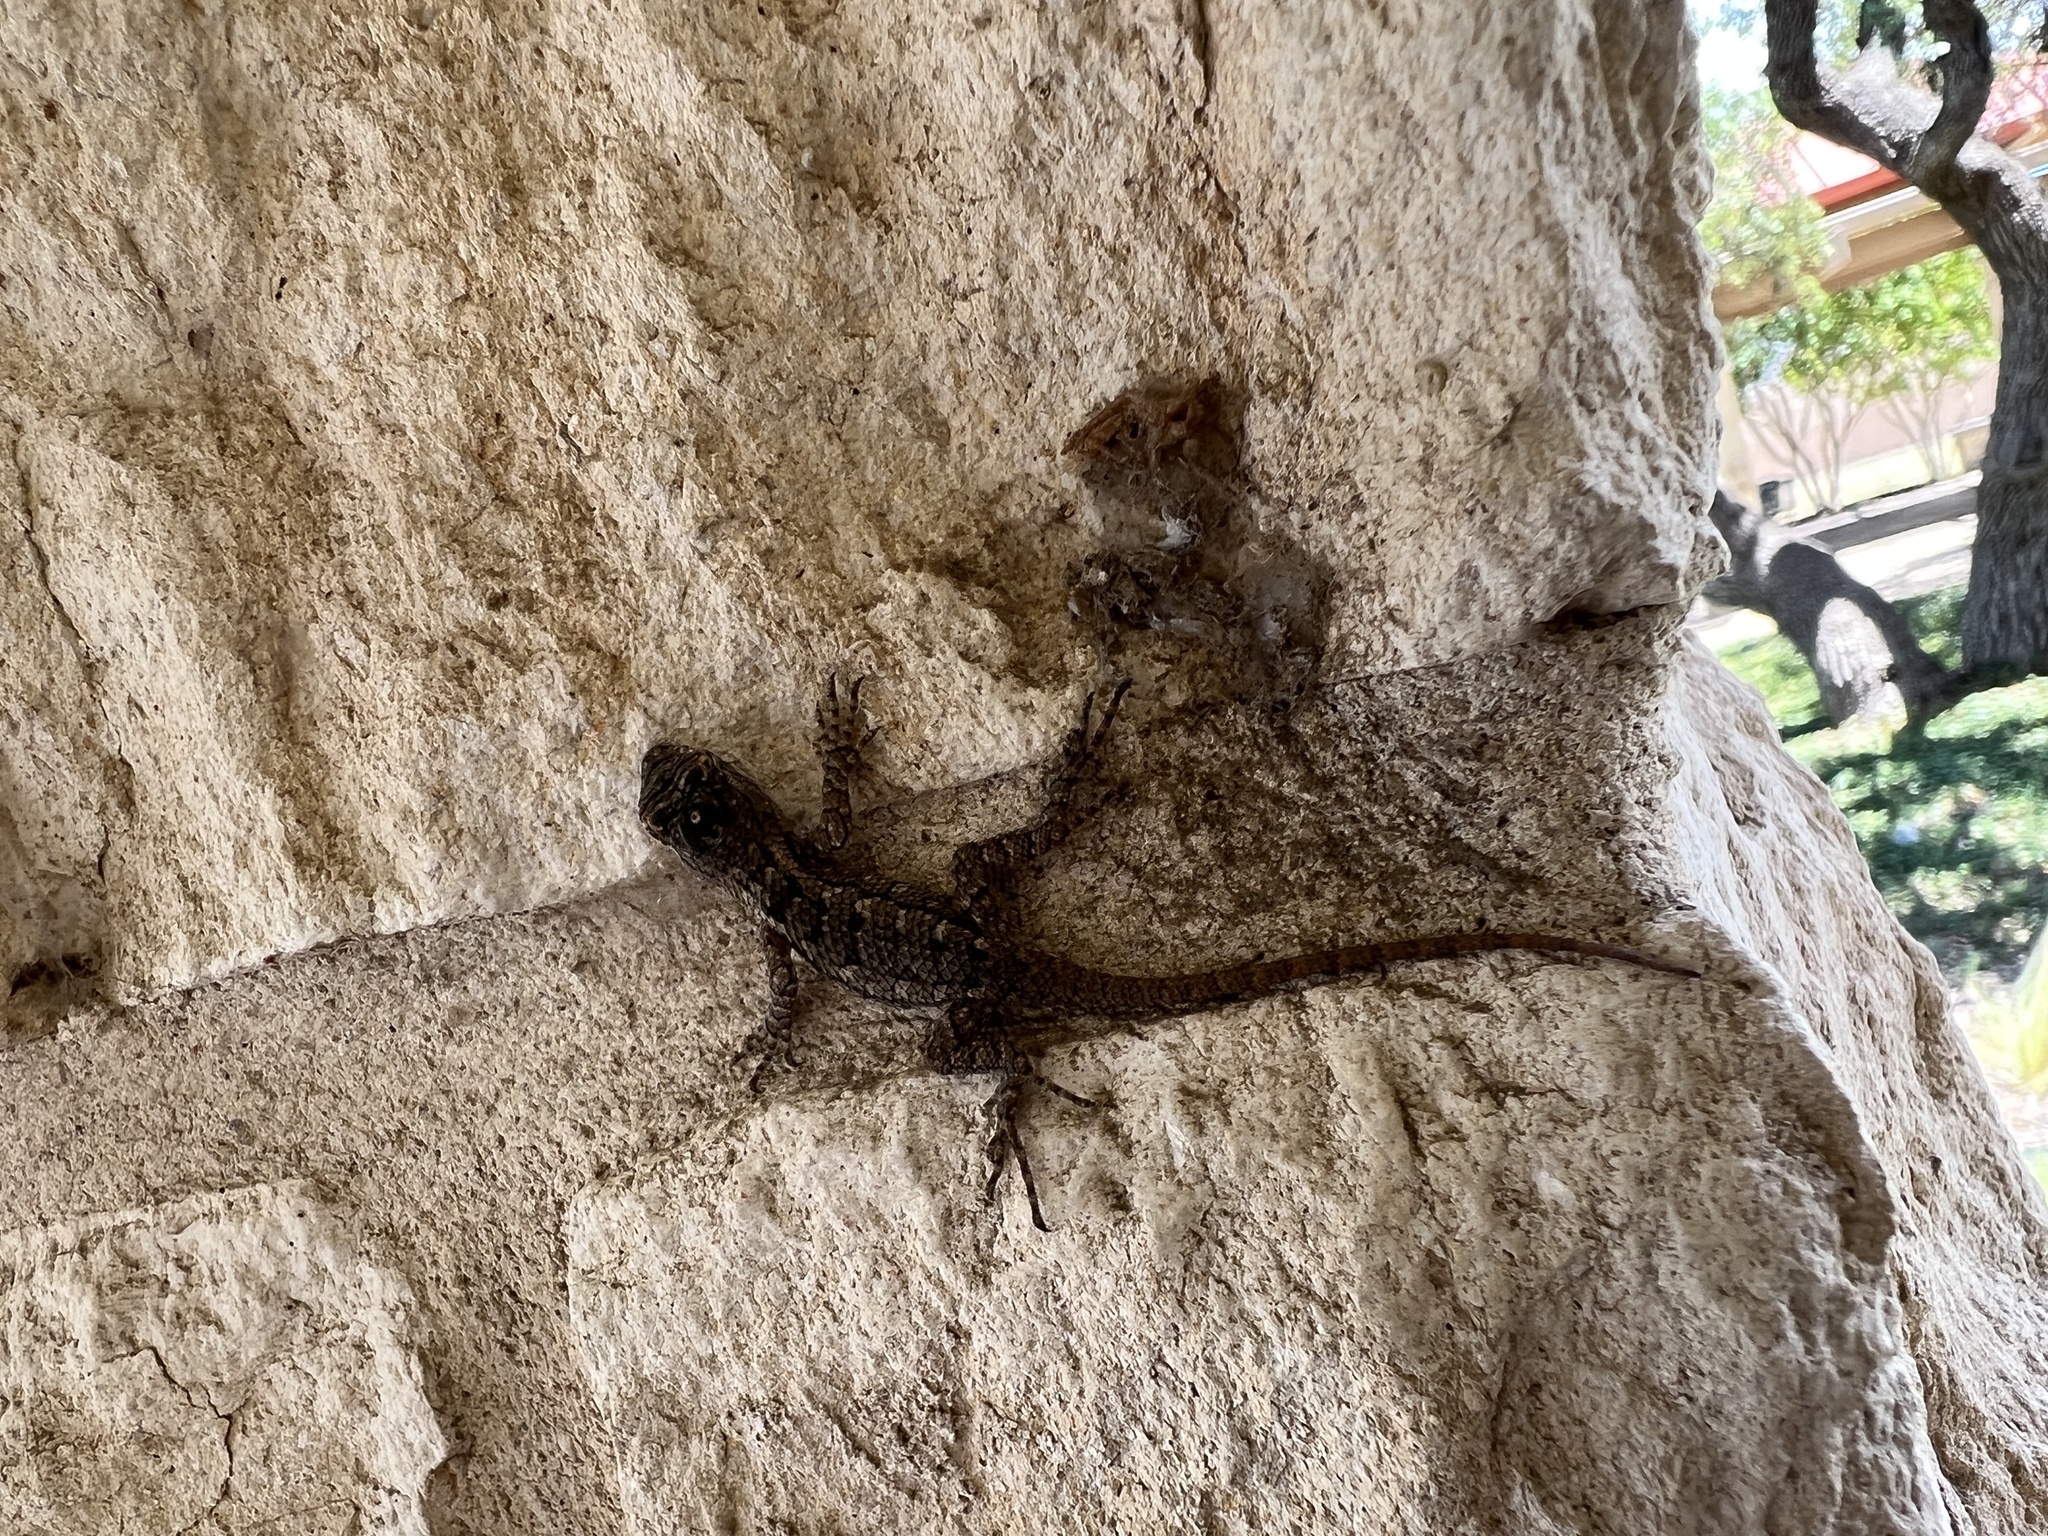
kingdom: Animalia
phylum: Chordata
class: Squamata
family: Phrynosomatidae
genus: Sceloporus
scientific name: Sceloporus olivaceus
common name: Texas spiny lizard
